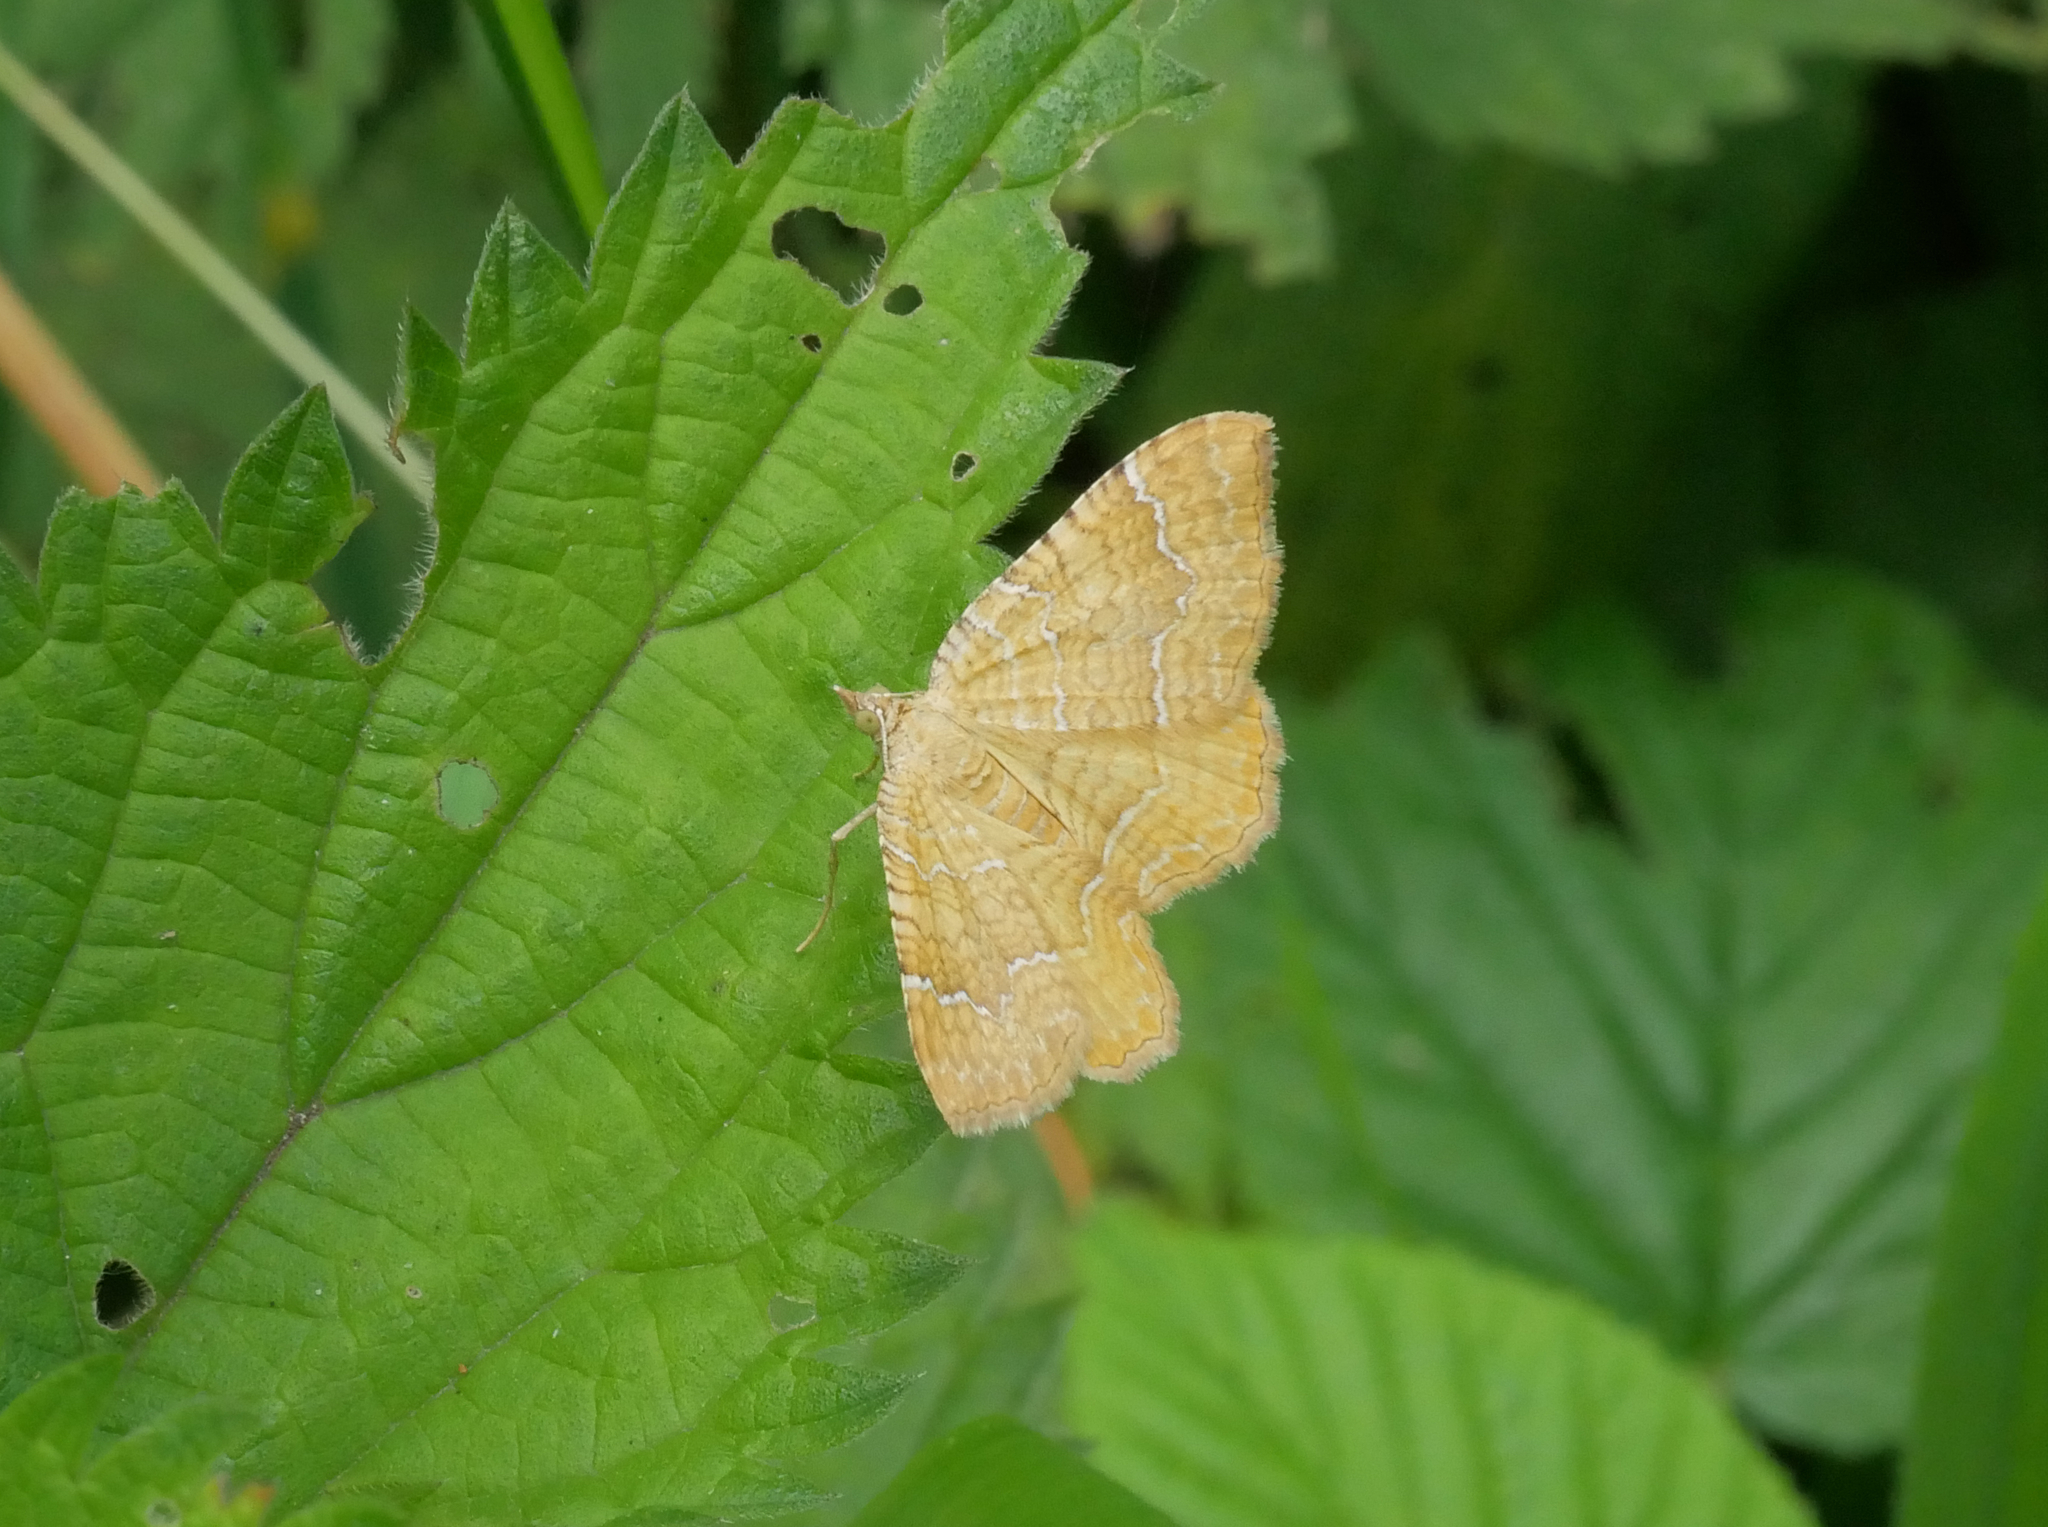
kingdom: Animalia
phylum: Arthropoda
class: Insecta
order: Lepidoptera
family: Geometridae
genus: Camptogramma
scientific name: Camptogramma bilineata
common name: Yellow shell
